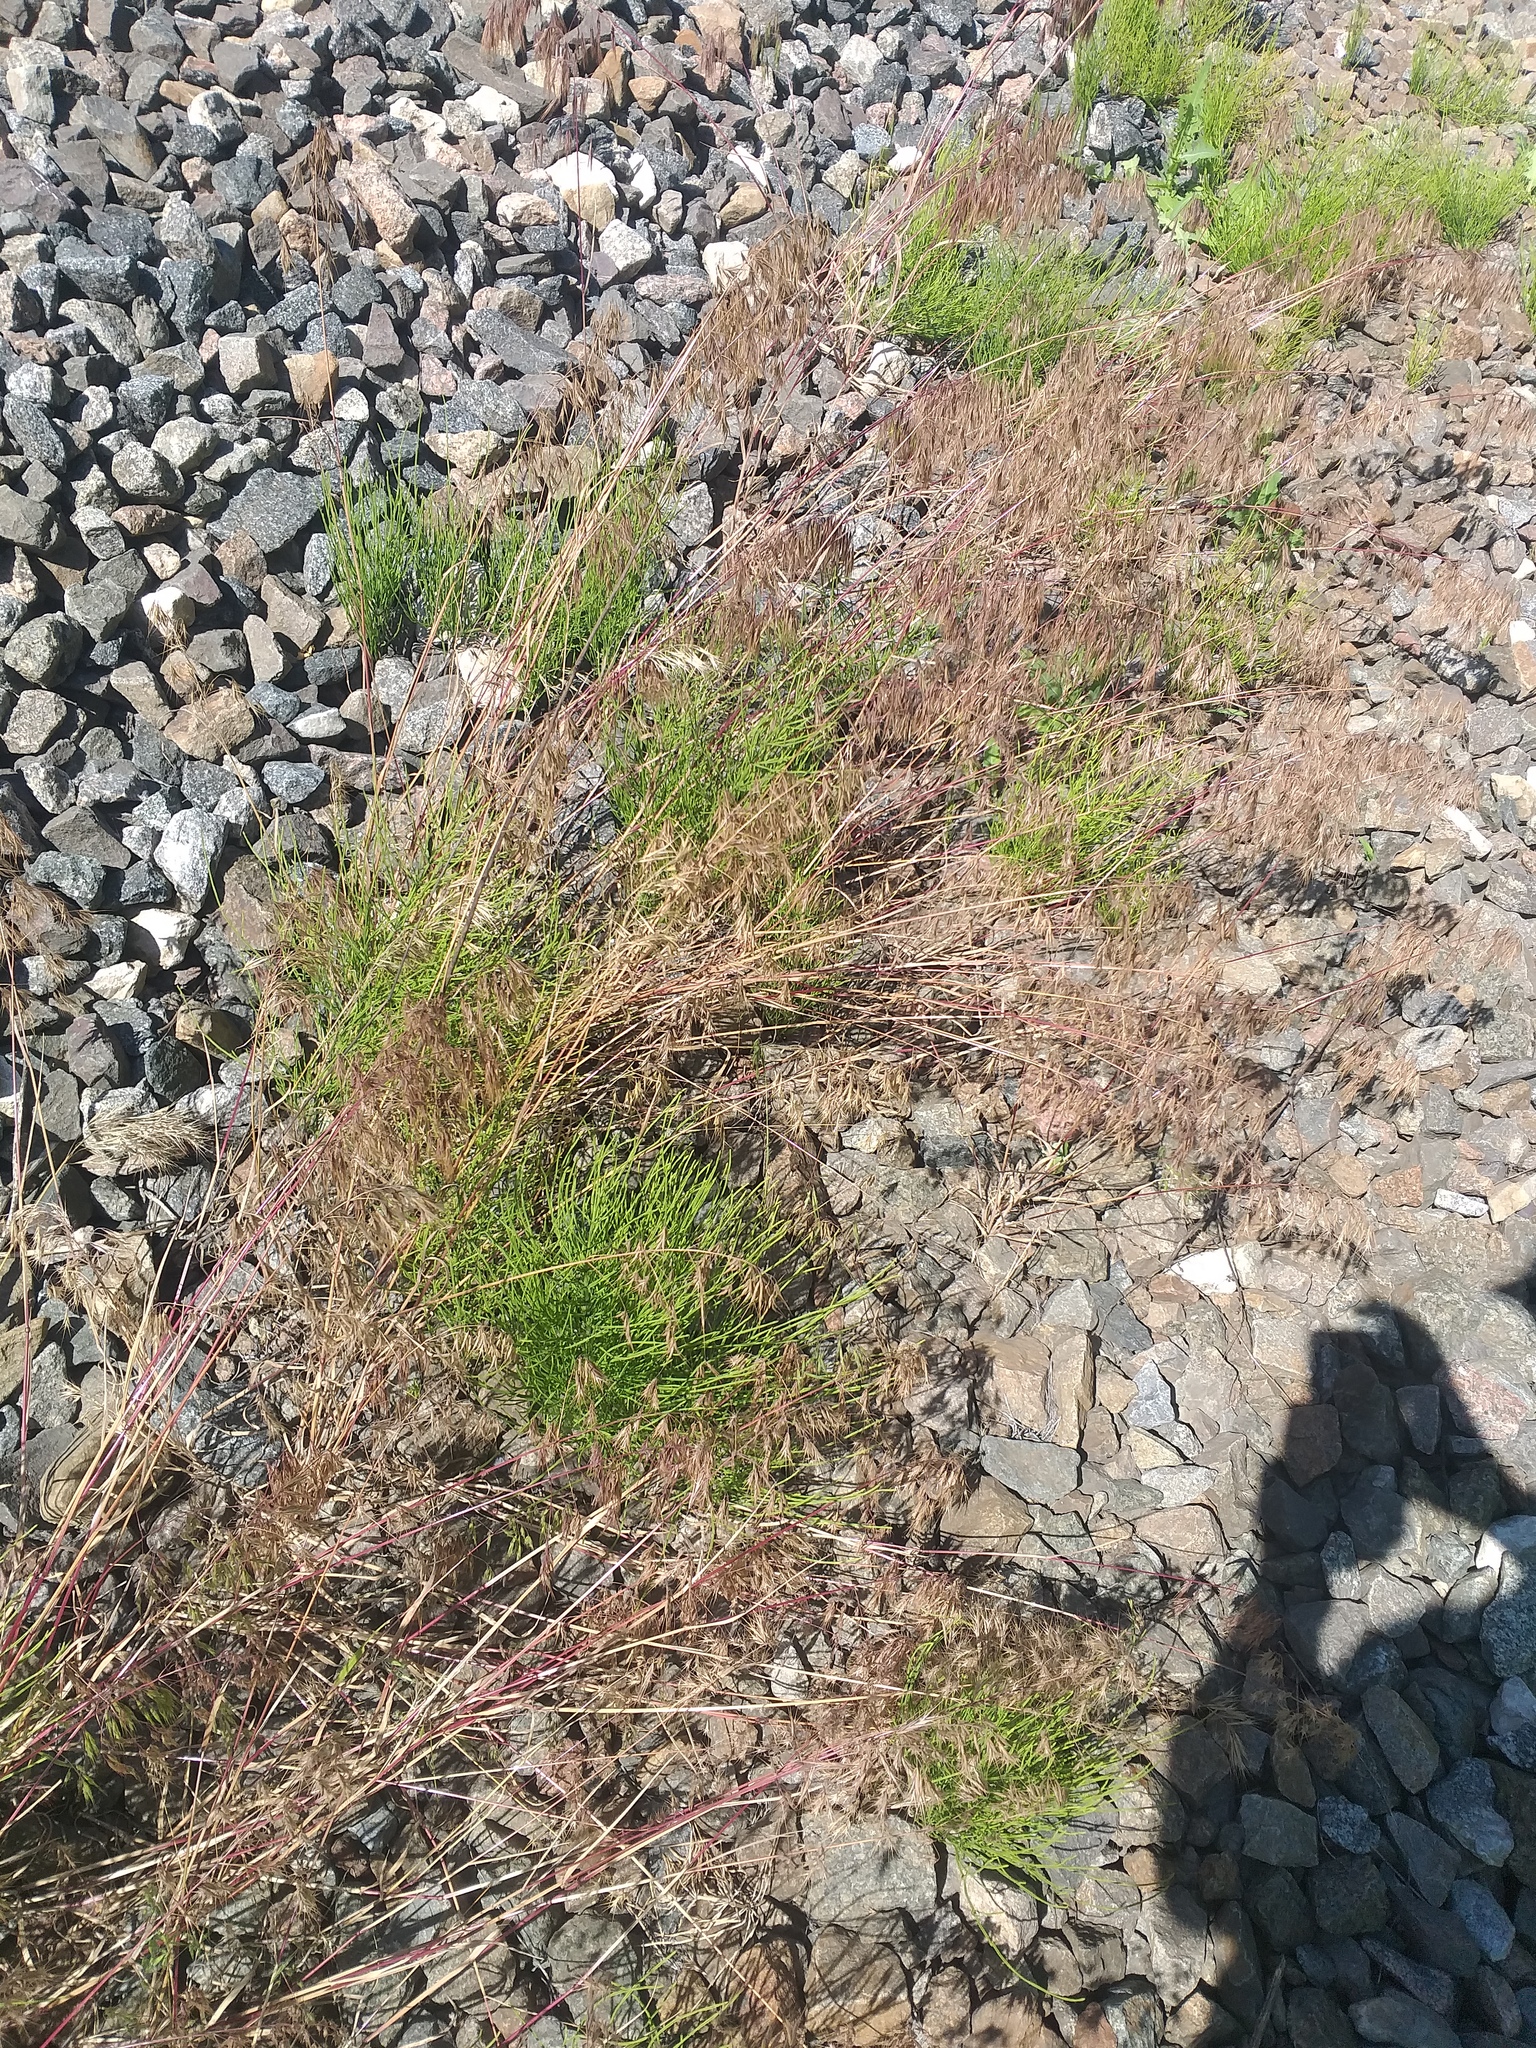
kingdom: Plantae
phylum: Tracheophyta
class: Liliopsida
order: Poales
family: Poaceae
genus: Bromus
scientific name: Bromus tectorum
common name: Cheatgrass
